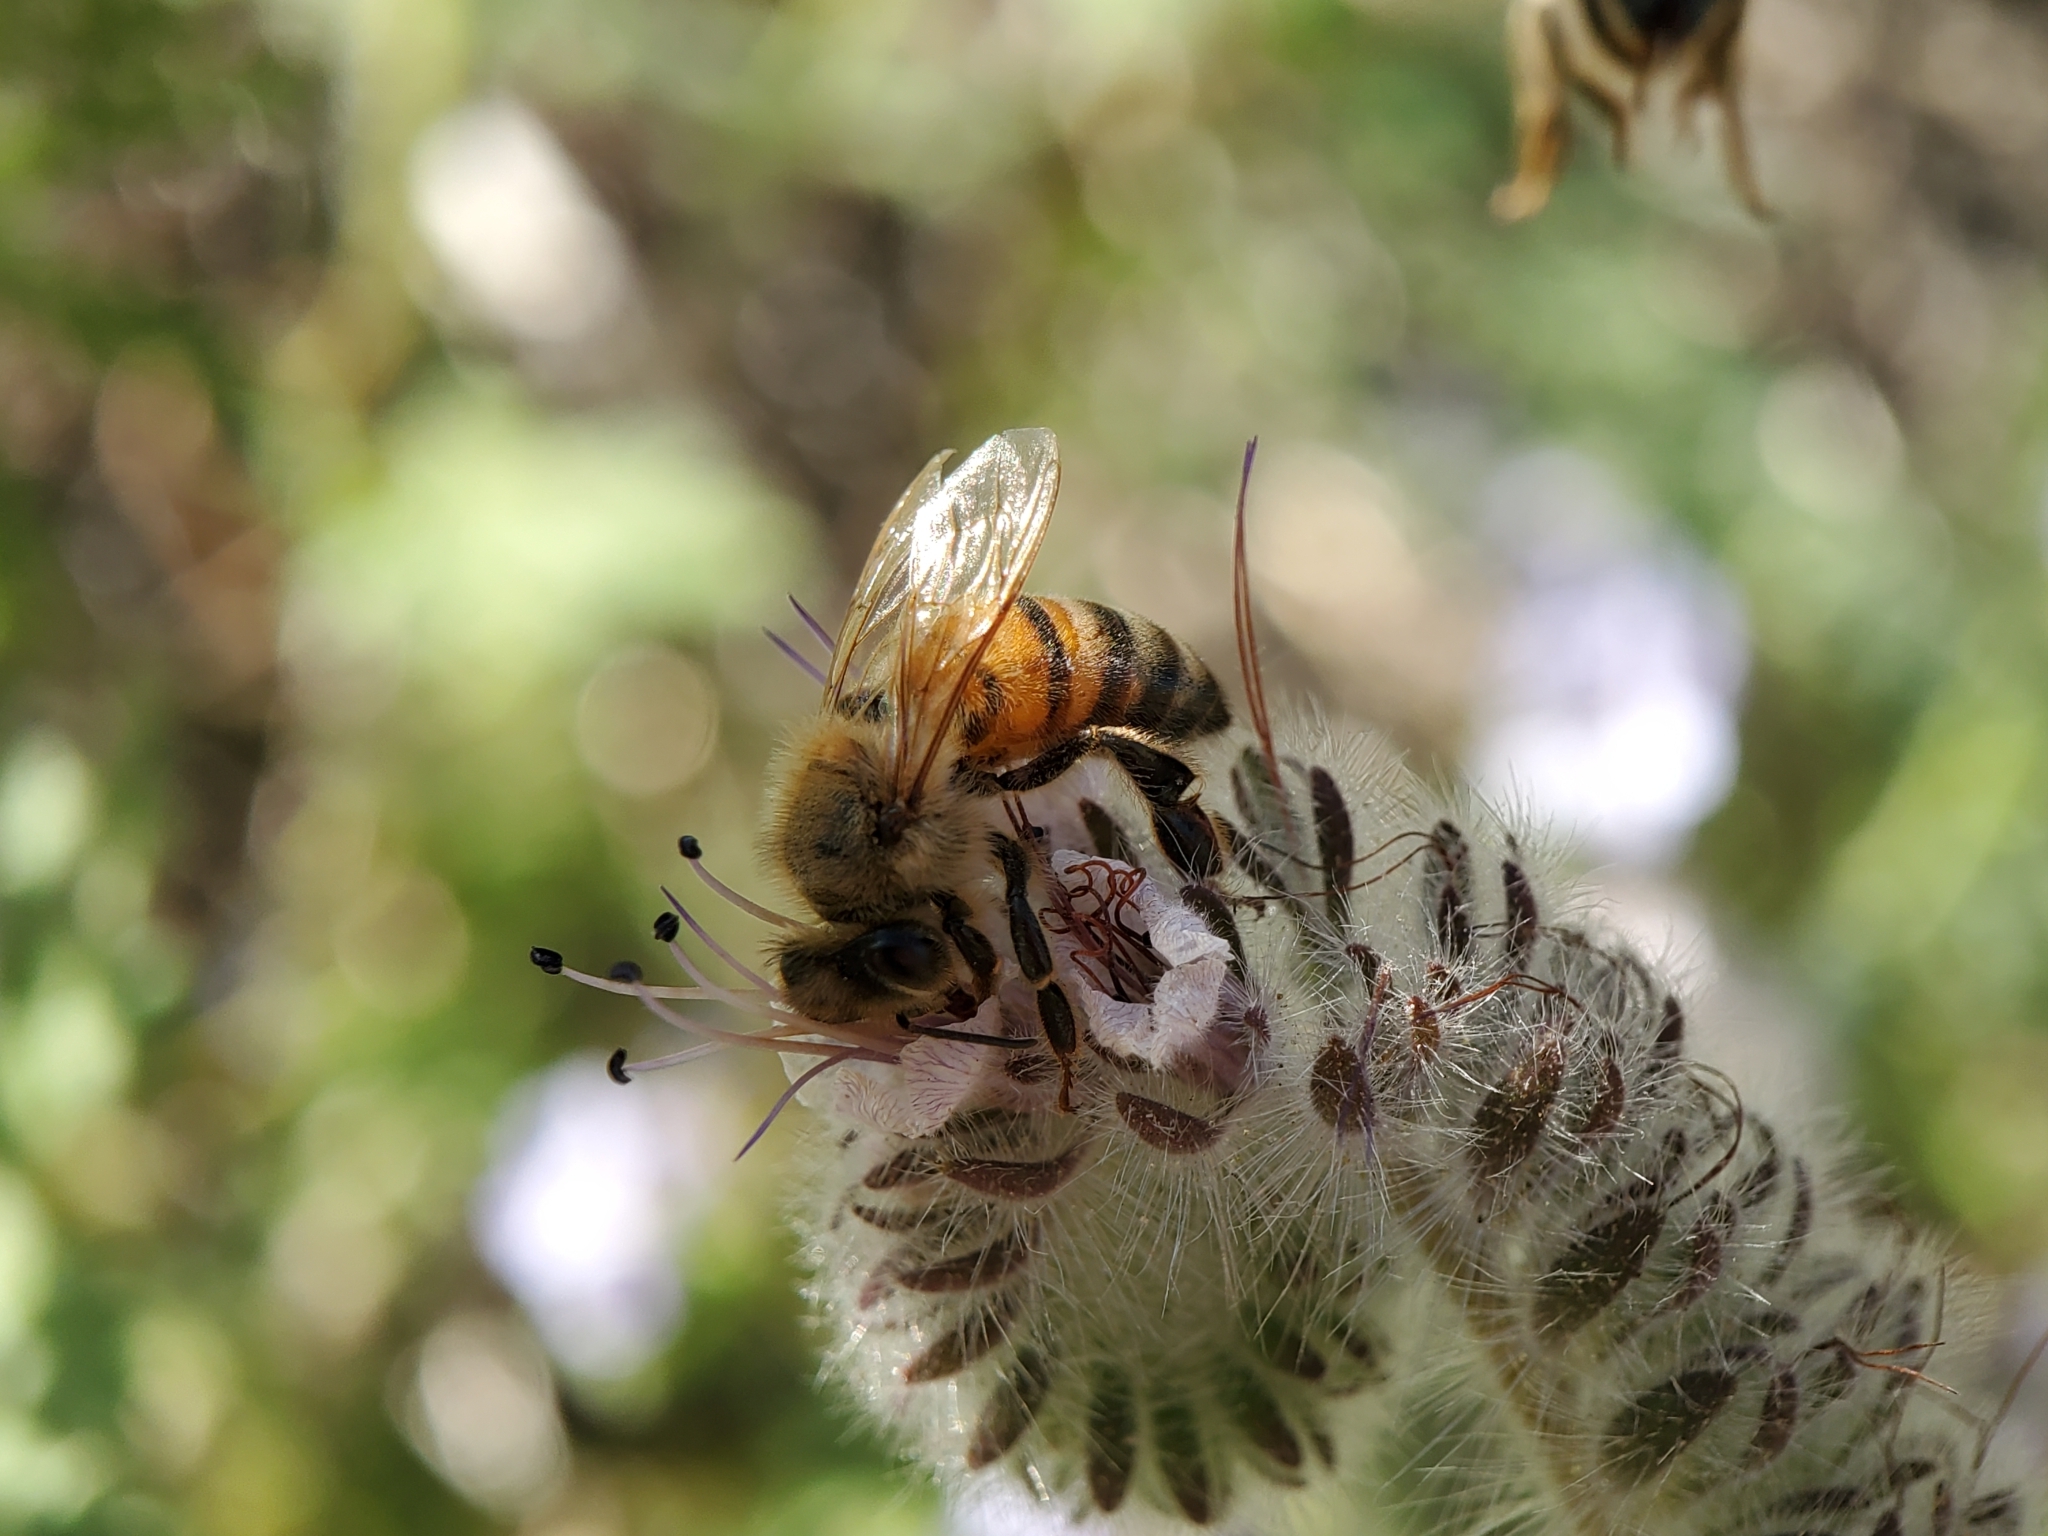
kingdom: Plantae
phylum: Tracheophyta
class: Magnoliopsida
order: Boraginales
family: Hydrophyllaceae
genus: Phacelia
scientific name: Phacelia hubbyi
